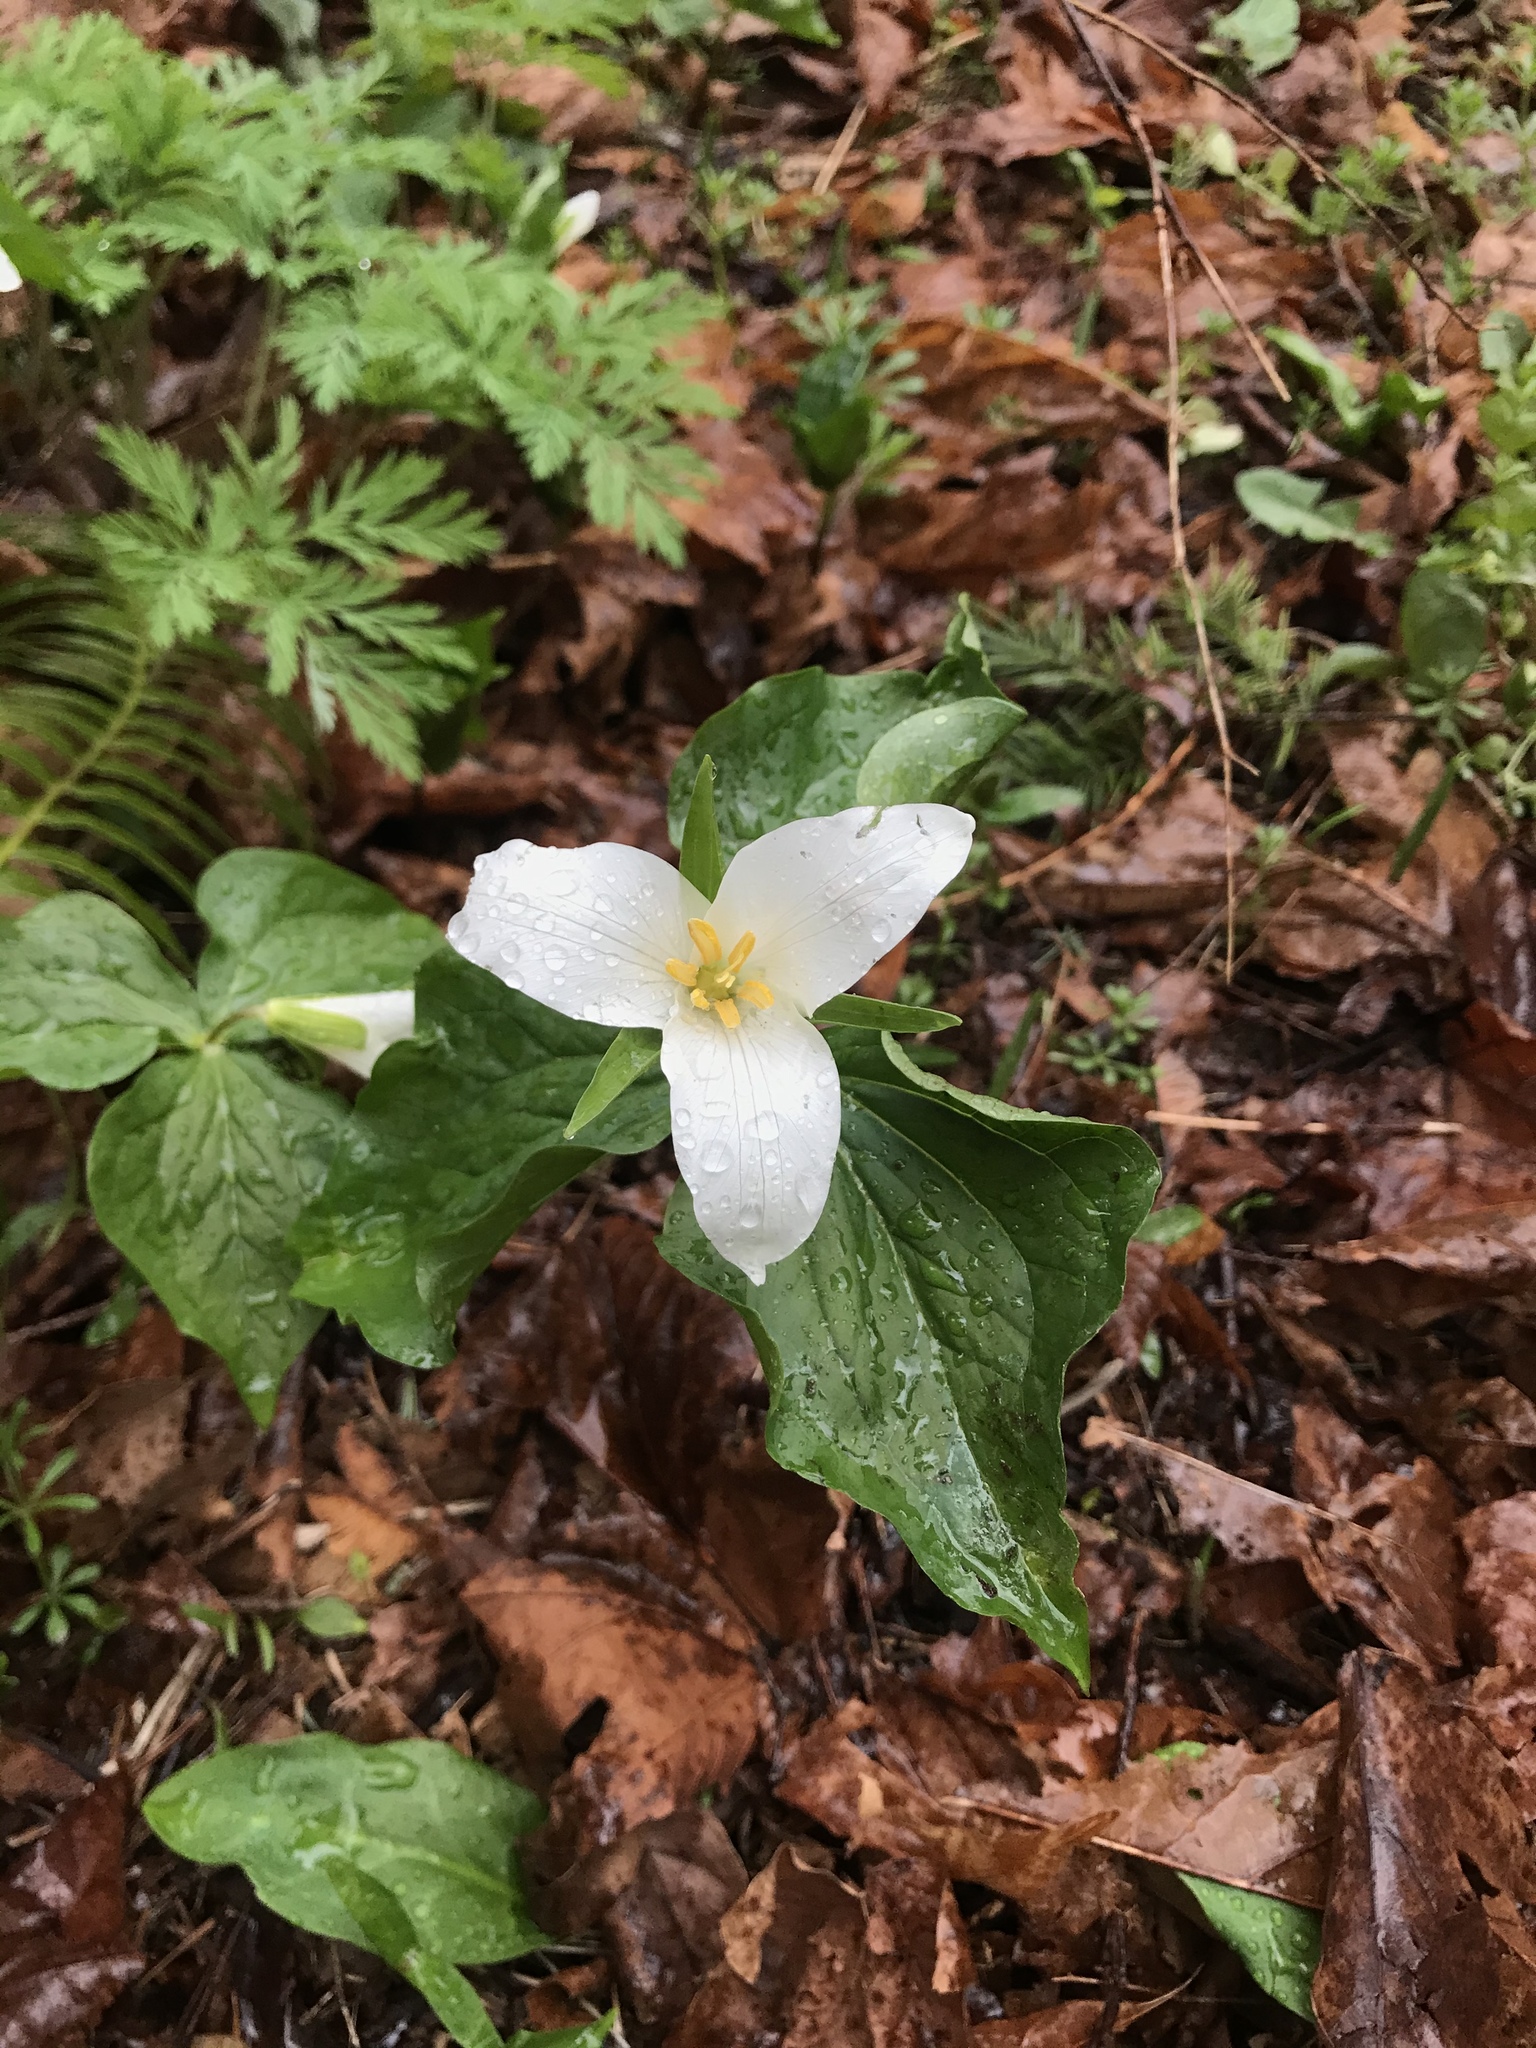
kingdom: Plantae
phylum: Tracheophyta
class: Liliopsida
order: Liliales
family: Melanthiaceae
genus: Trillium
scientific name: Trillium ovatum
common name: Pacific trillium
